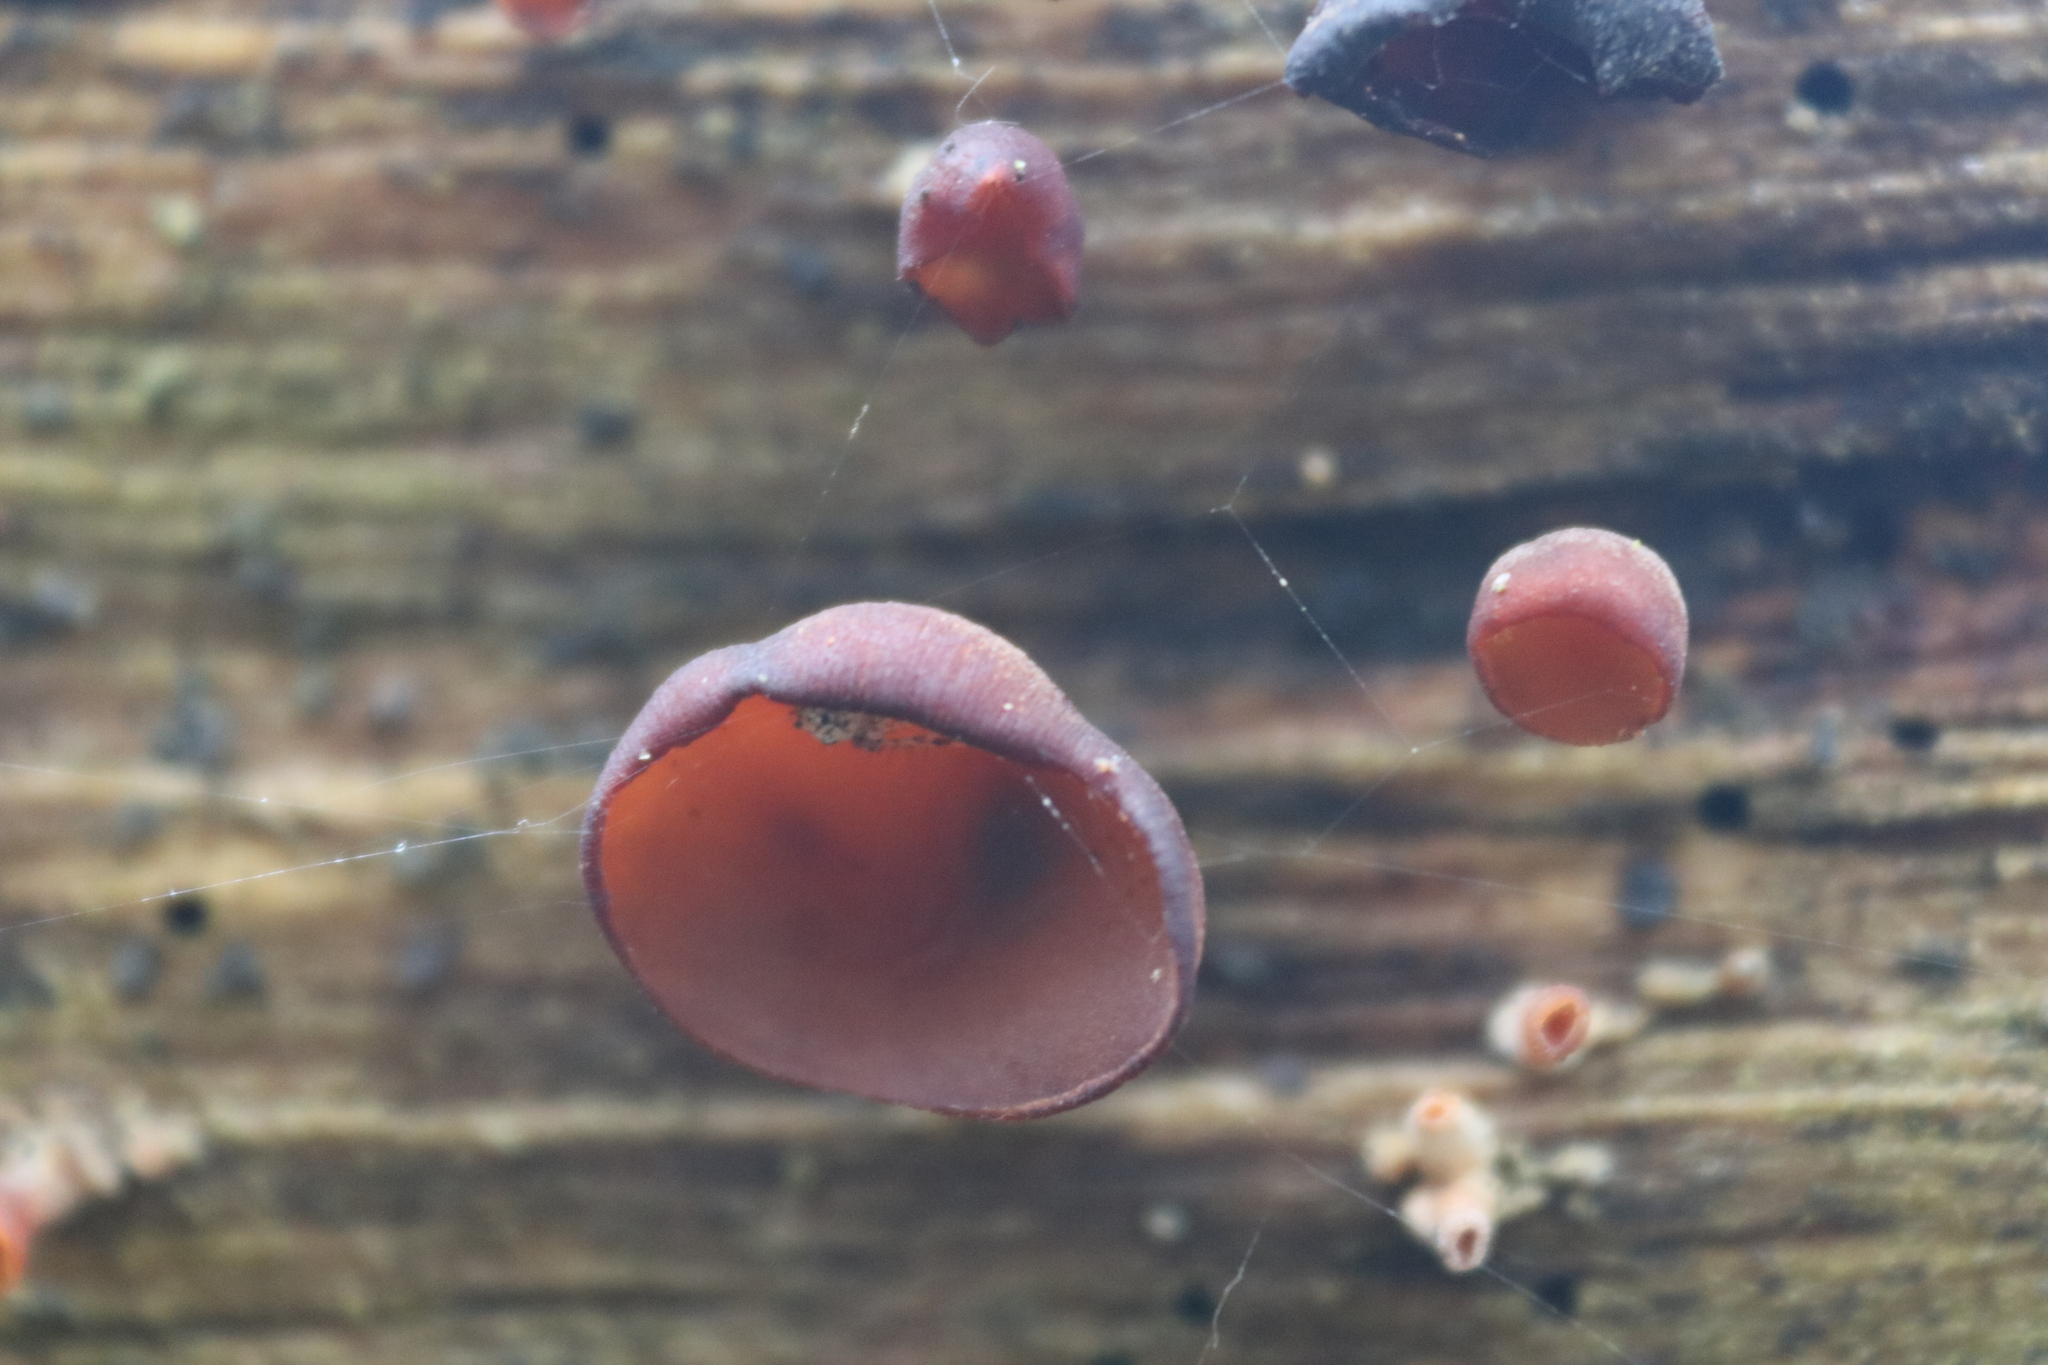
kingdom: Fungi
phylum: Basidiomycota
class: Dacrymycetes
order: Dacrymycetales
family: Dacrymycetaceae
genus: Dacryopinax
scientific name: Dacryopinax elegans
